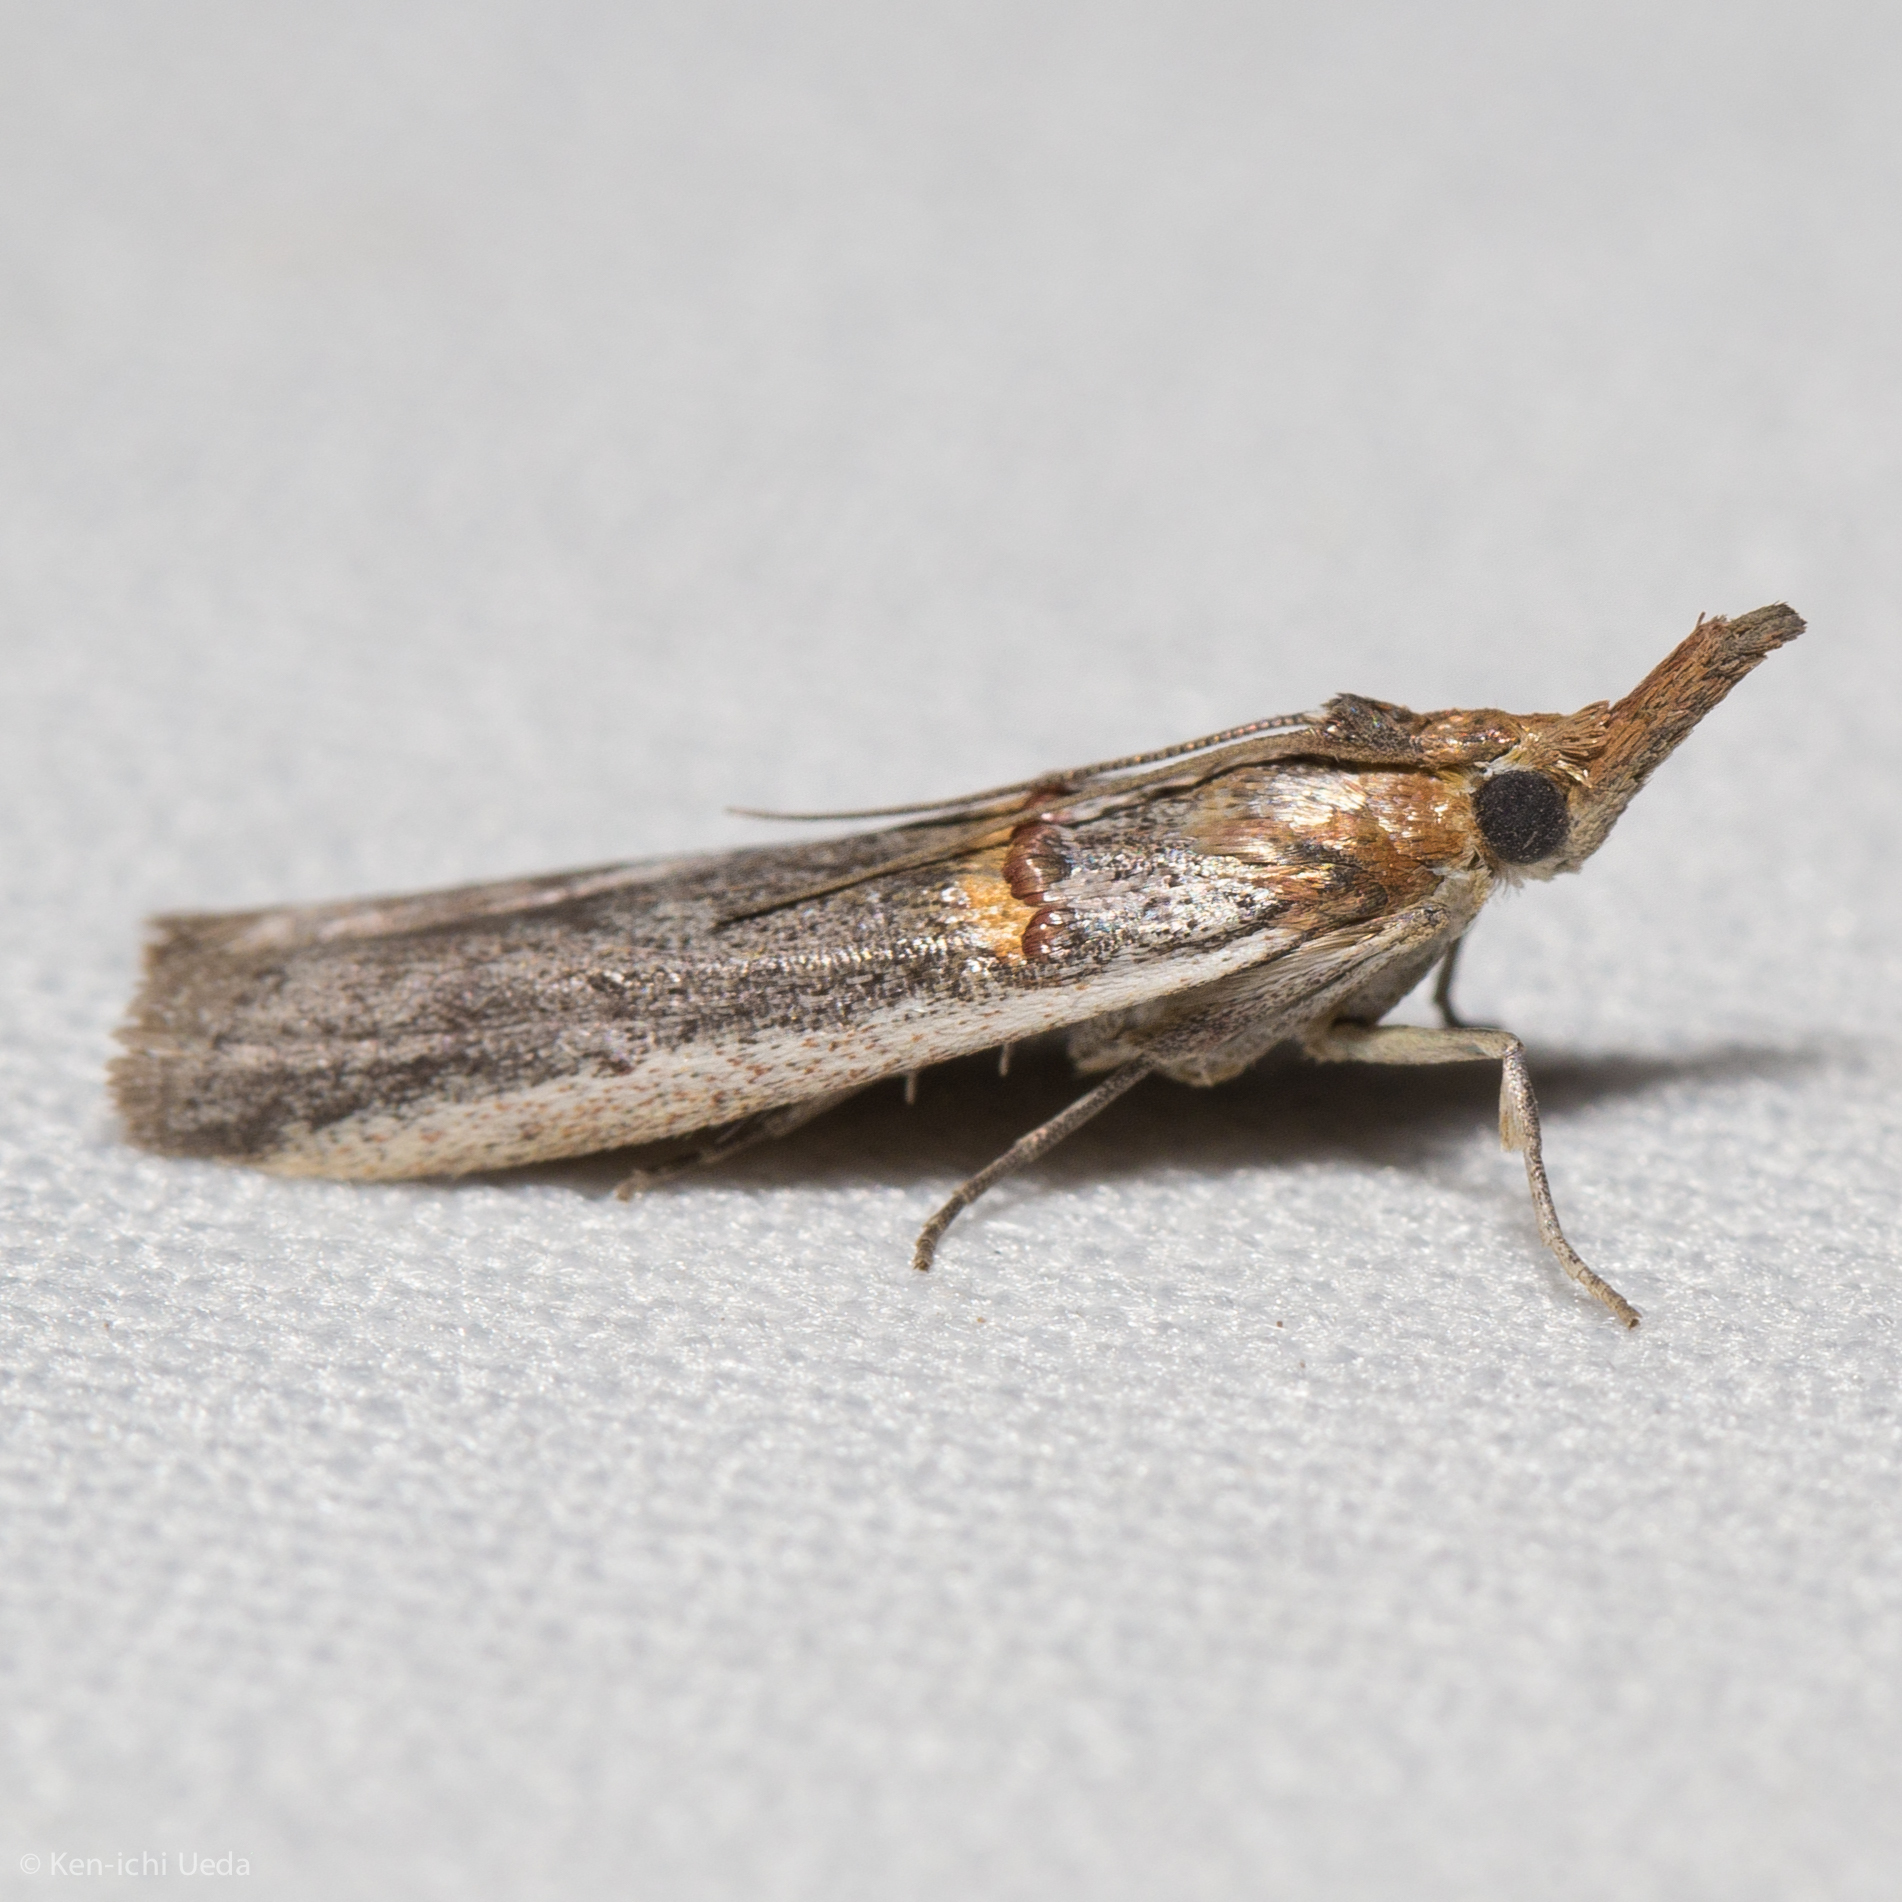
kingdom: Animalia
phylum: Arthropoda
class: Insecta
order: Lepidoptera
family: Pyralidae
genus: Etiella
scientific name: Etiella zinckenella
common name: Gold-banded etiella moth
